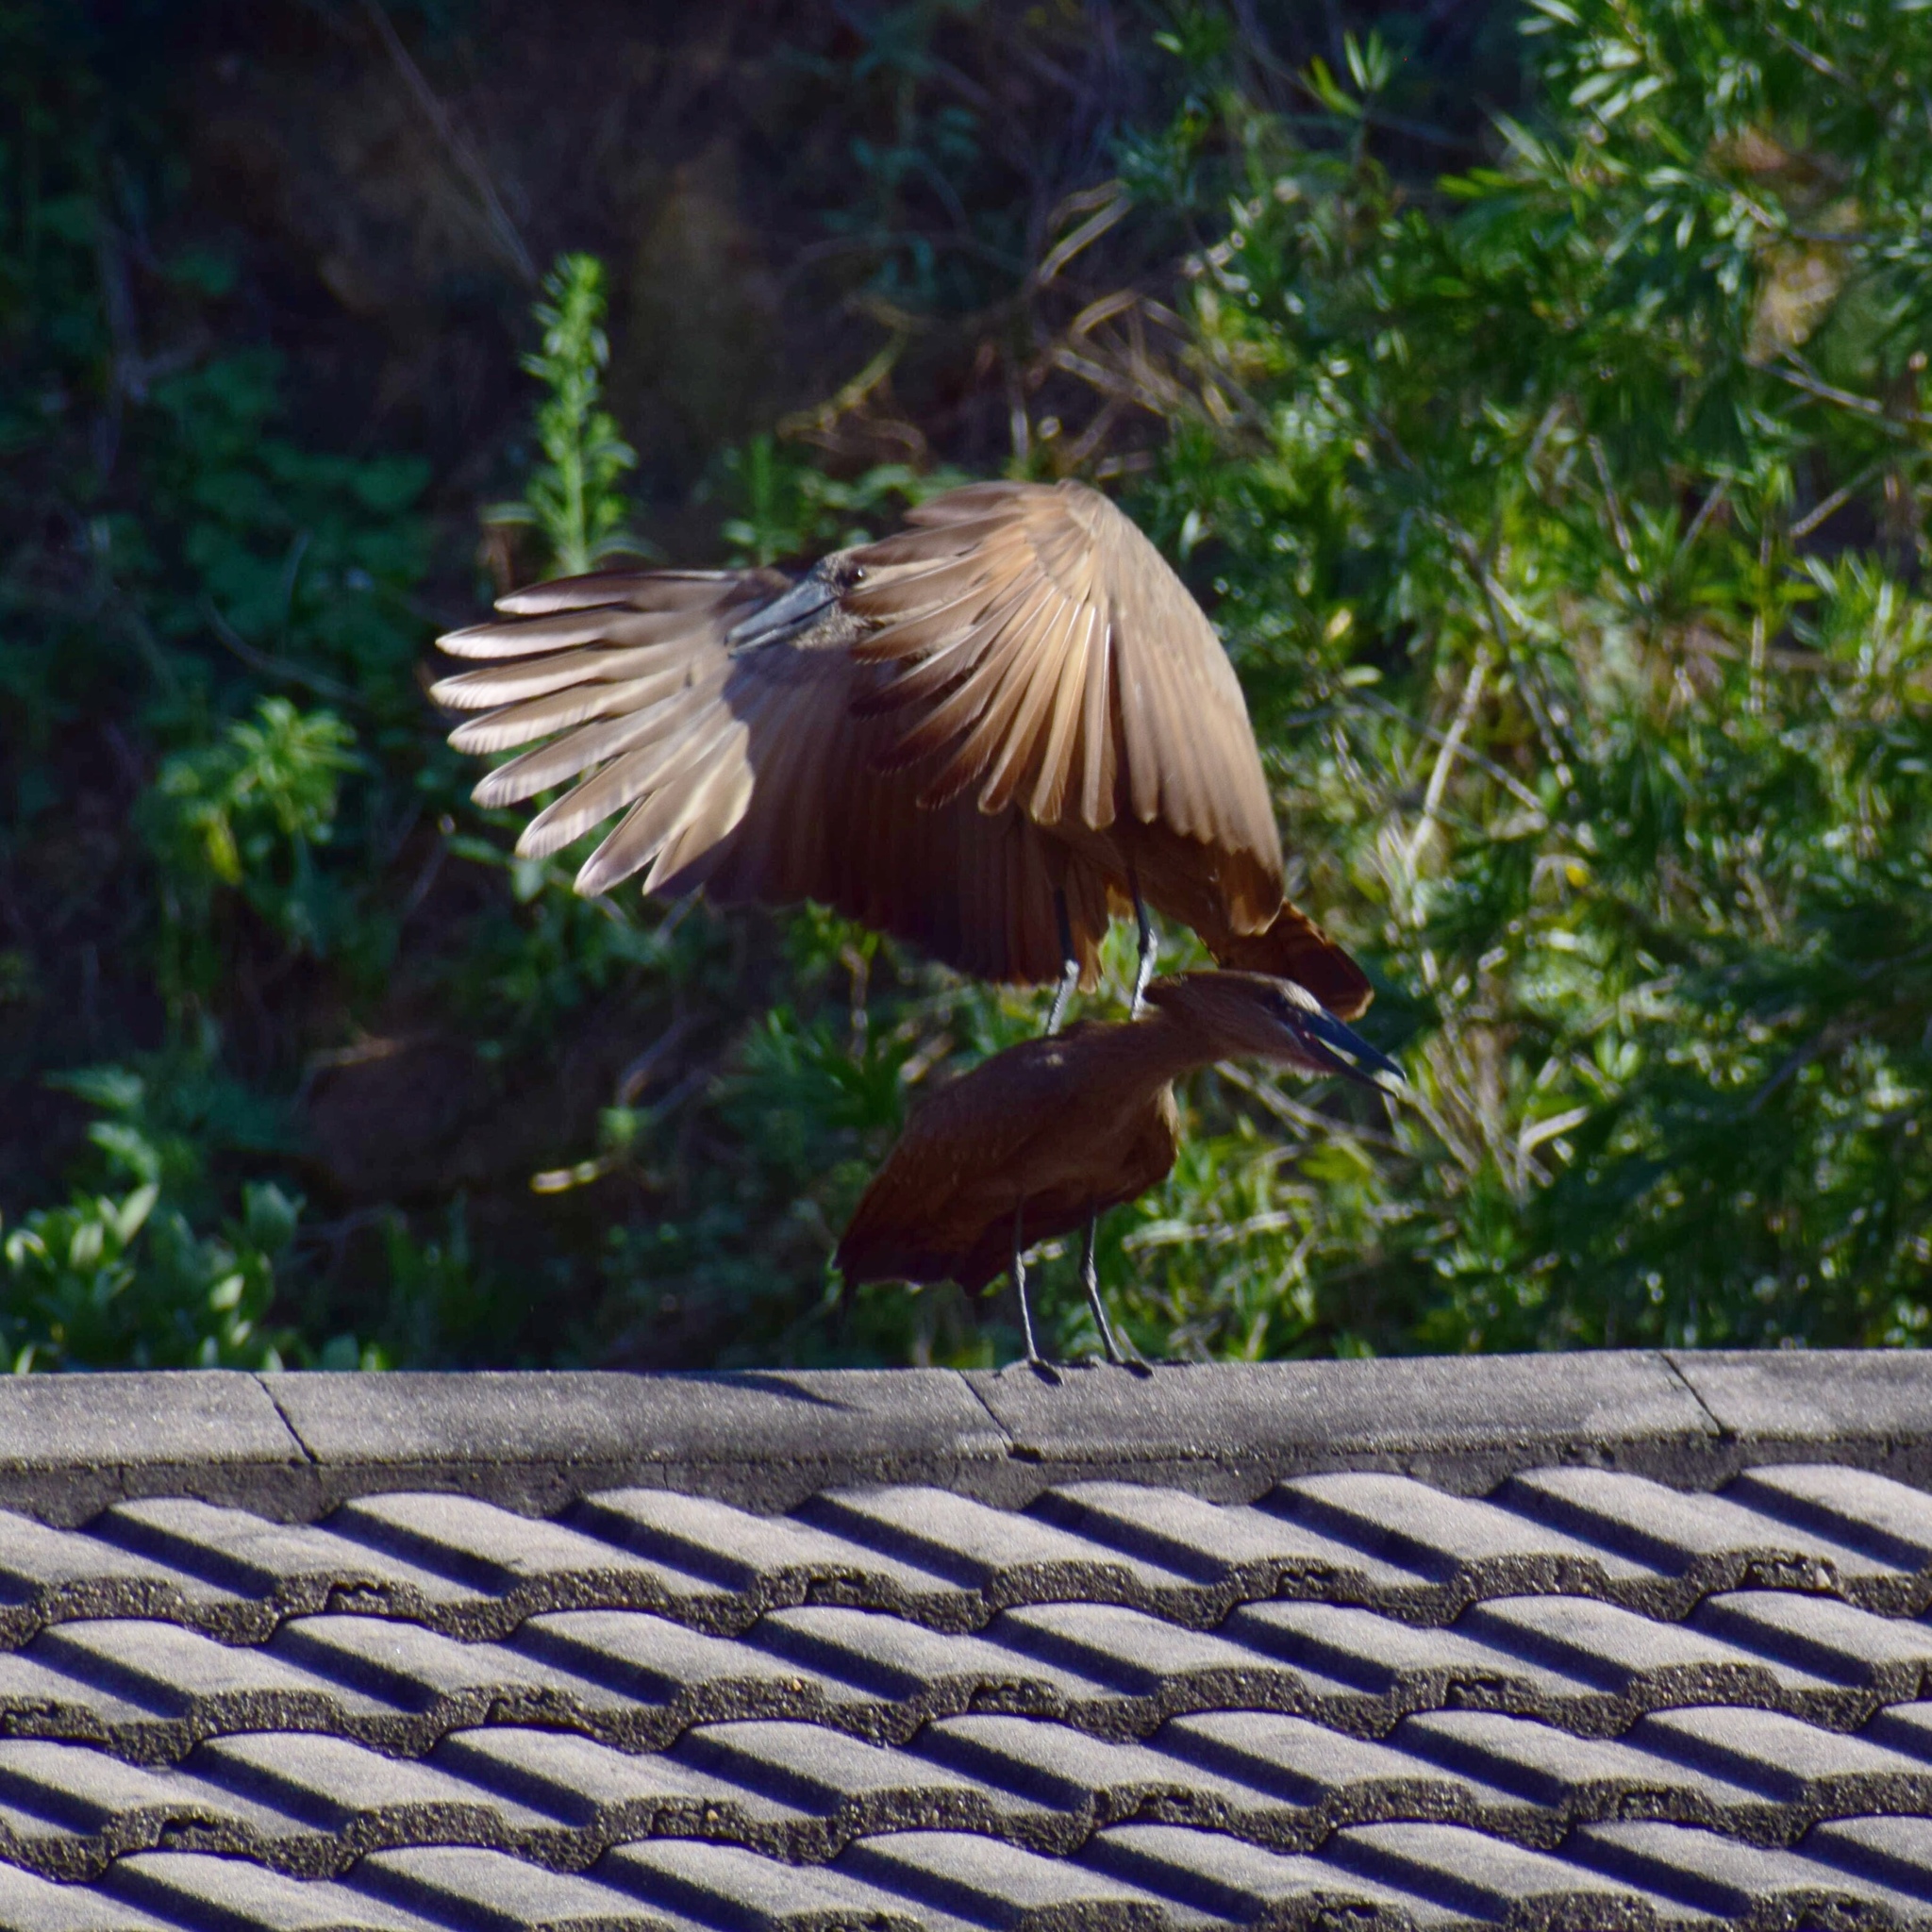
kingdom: Animalia
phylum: Chordata
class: Aves
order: Pelecaniformes
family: Scopidae
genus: Scopus
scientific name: Scopus umbretta
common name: Hamerkop
